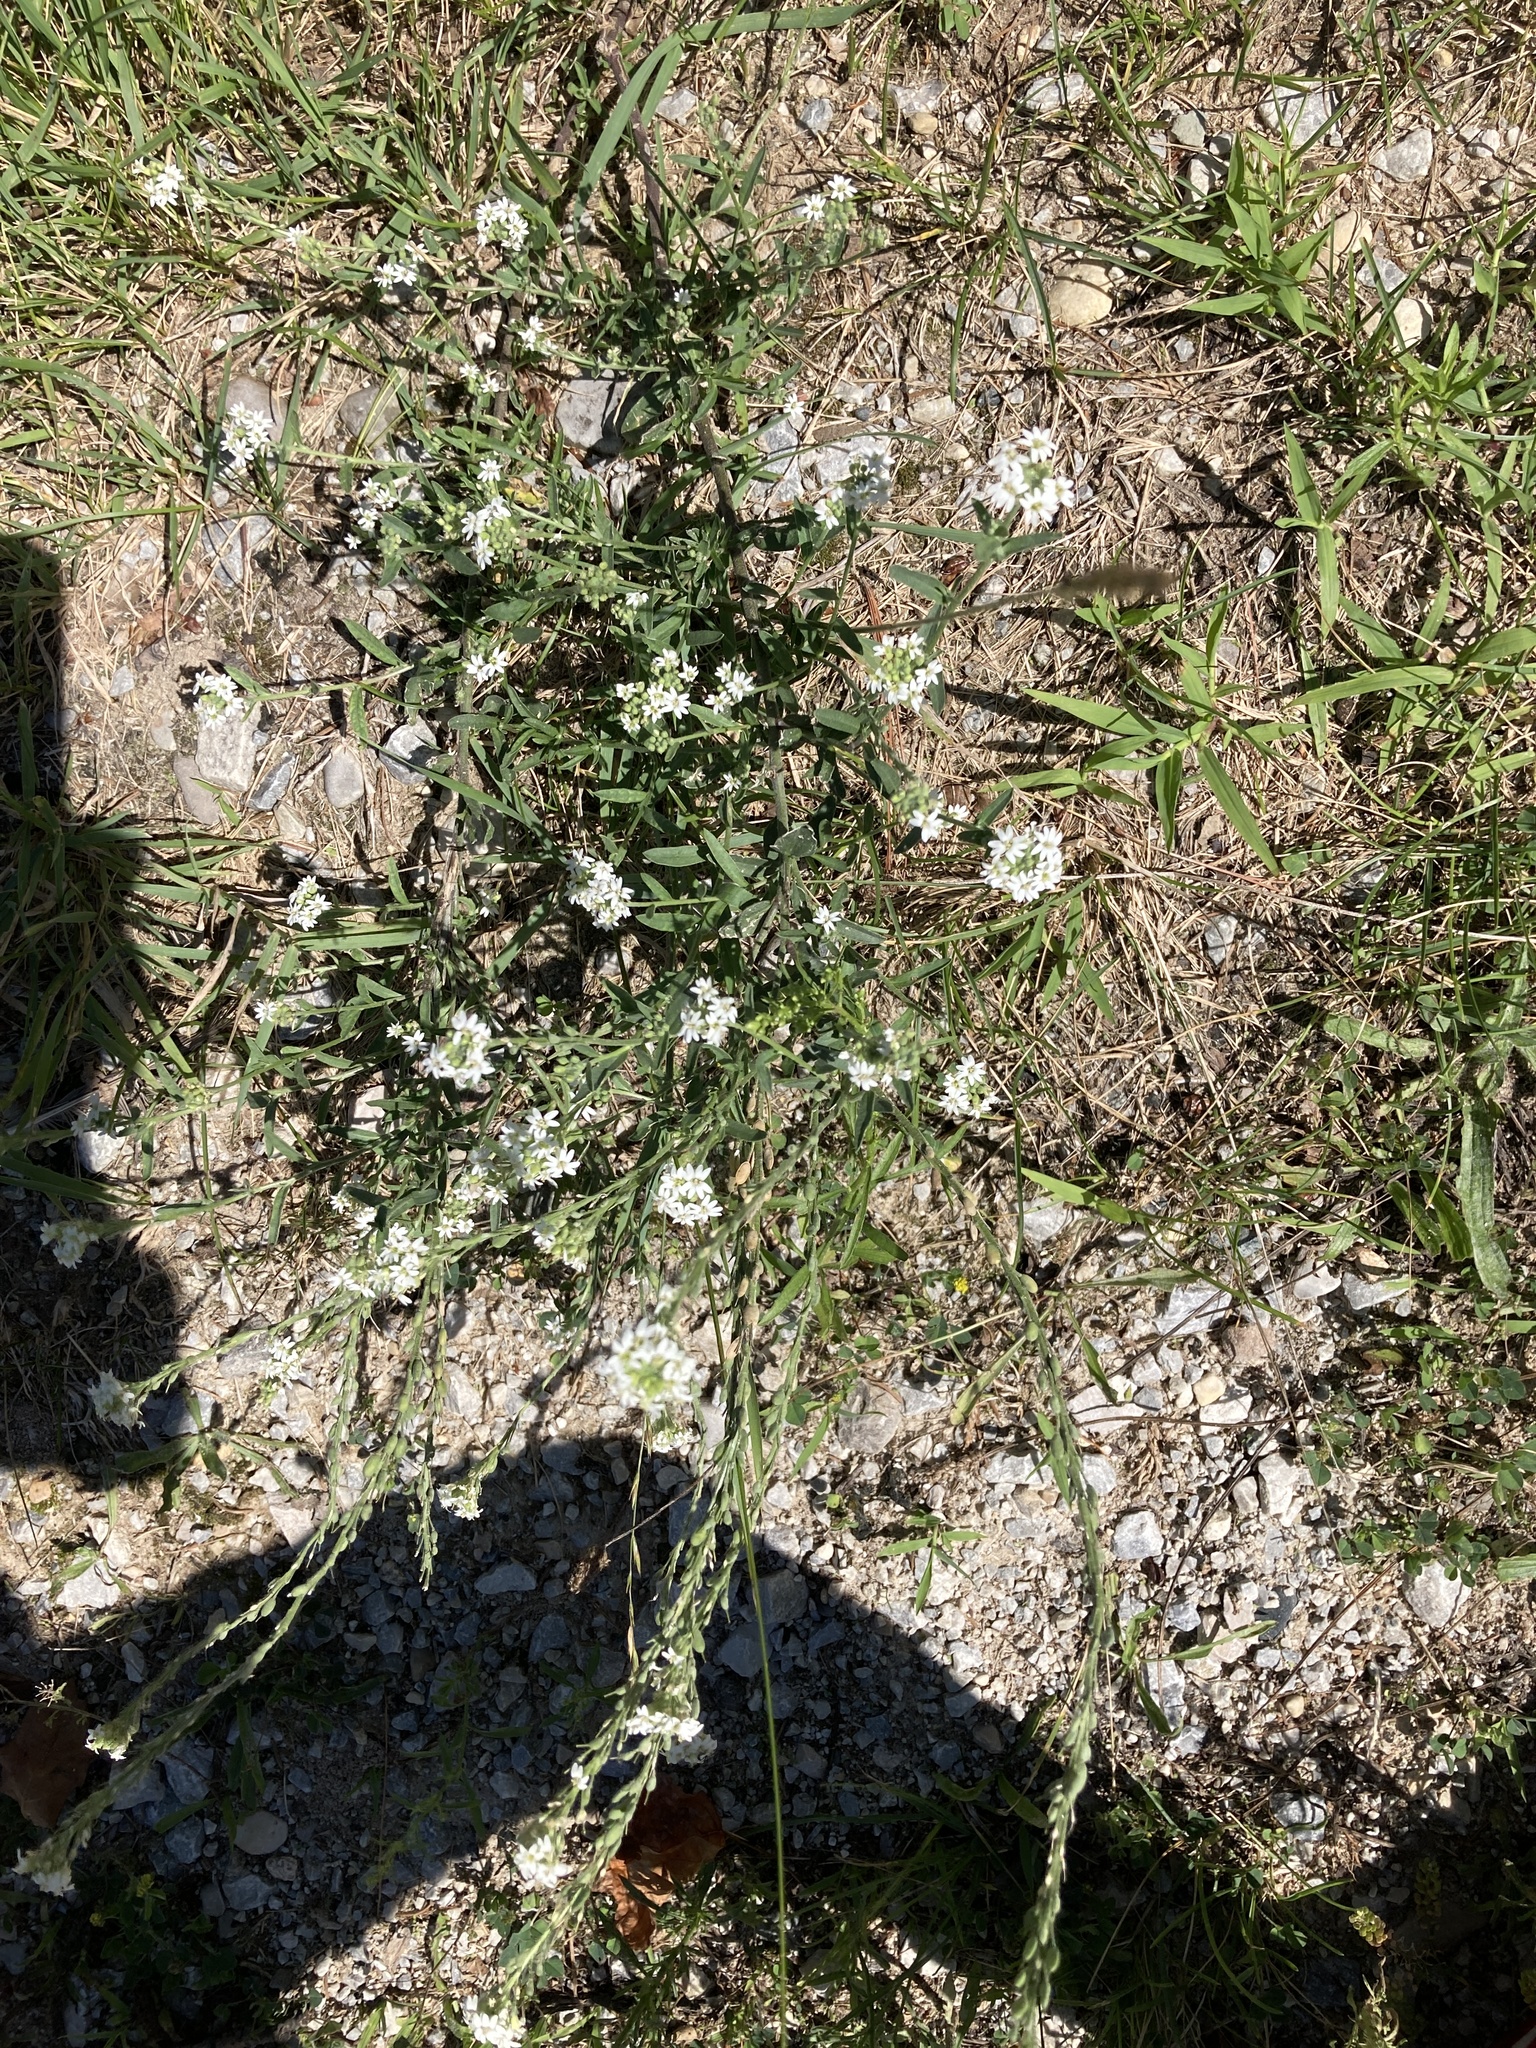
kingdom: Plantae
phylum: Tracheophyta
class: Magnoliopsida
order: Brassicales
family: Brassicaceae
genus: Berteroa
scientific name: Berteroa incana
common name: Hoary alison
